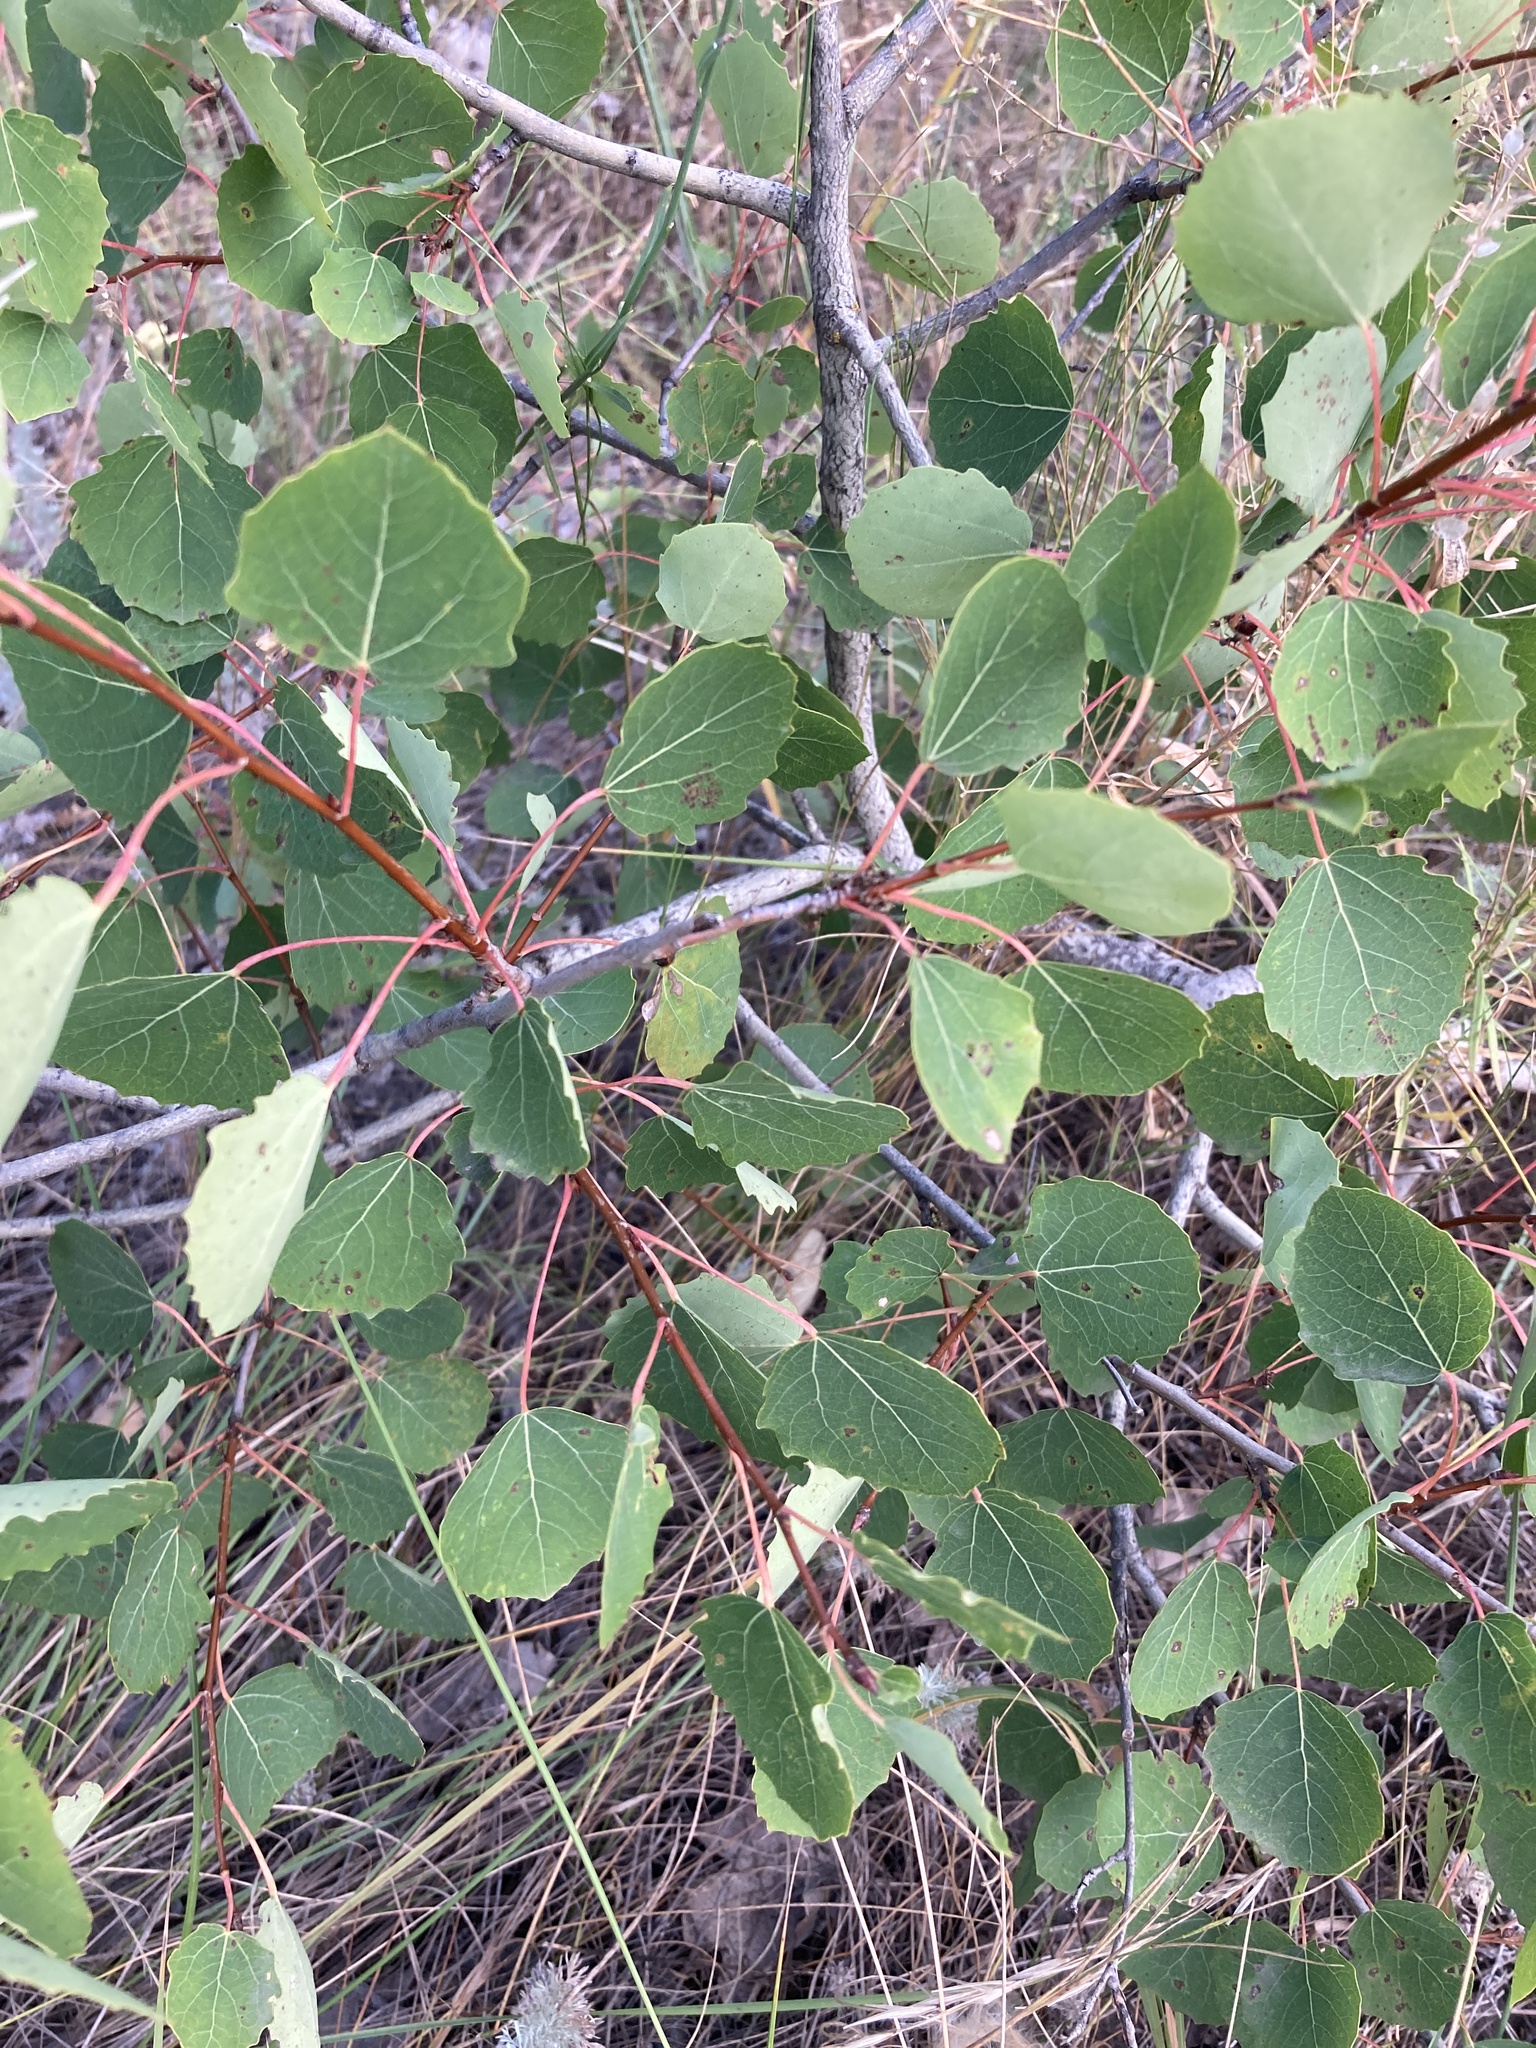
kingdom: Plantae
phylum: Tracheophyta
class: Magnoliopsida
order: Malpighiales
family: Salicaceae
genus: Populus
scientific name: Populus tremula
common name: European aspen
